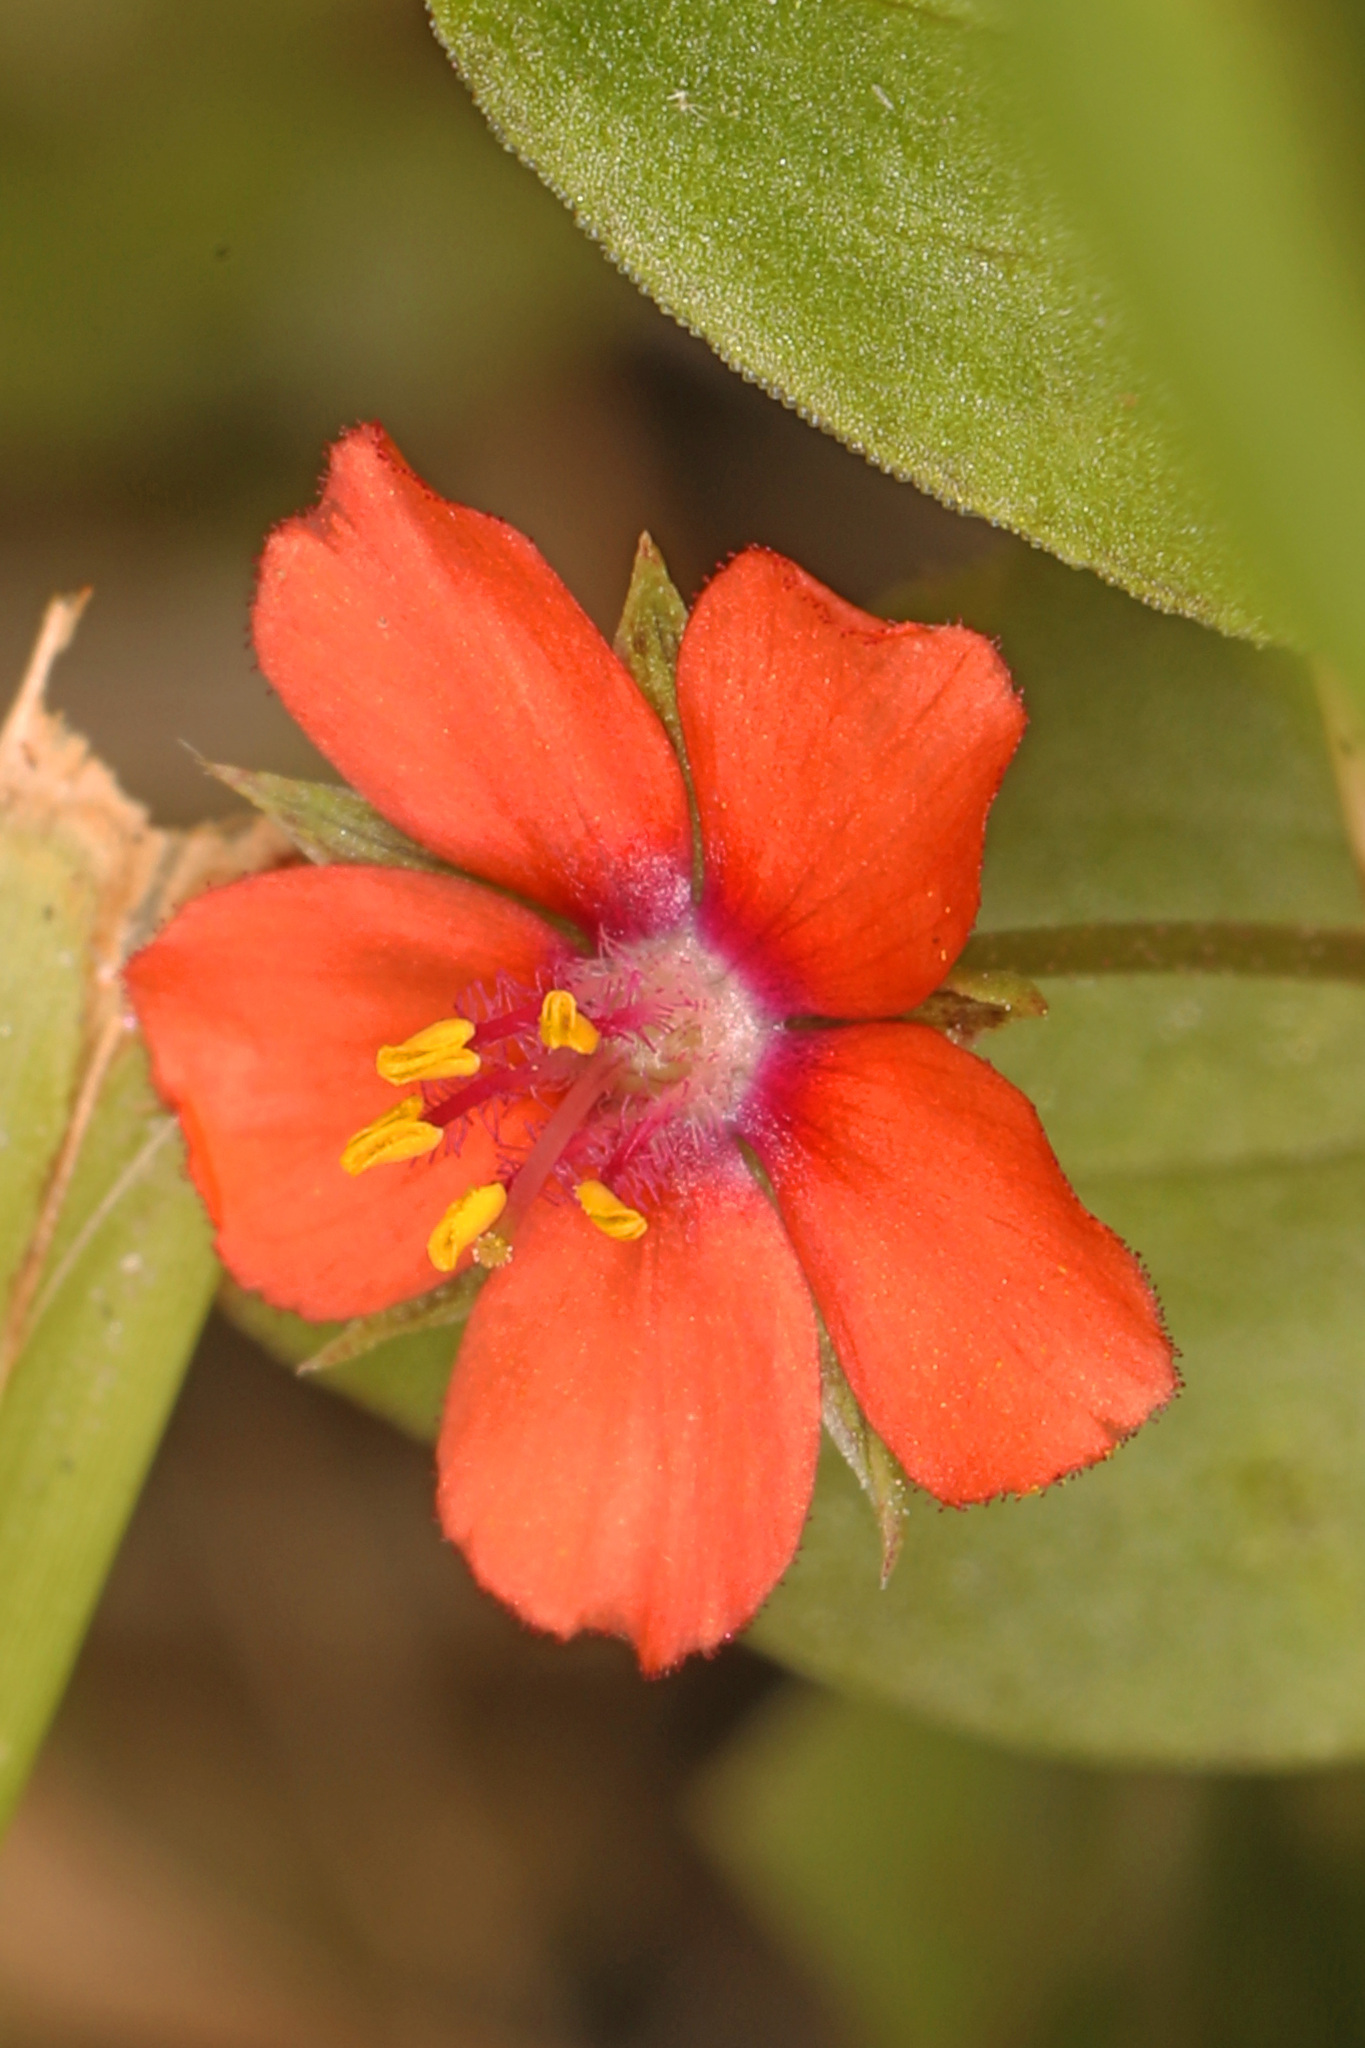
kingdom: Plantae
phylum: Tracheophyta
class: Magnoliopsida
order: Ericales
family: Primulaceae
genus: Lysimachia
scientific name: Lysimachia arvensis
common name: Scarlet pimpernel
